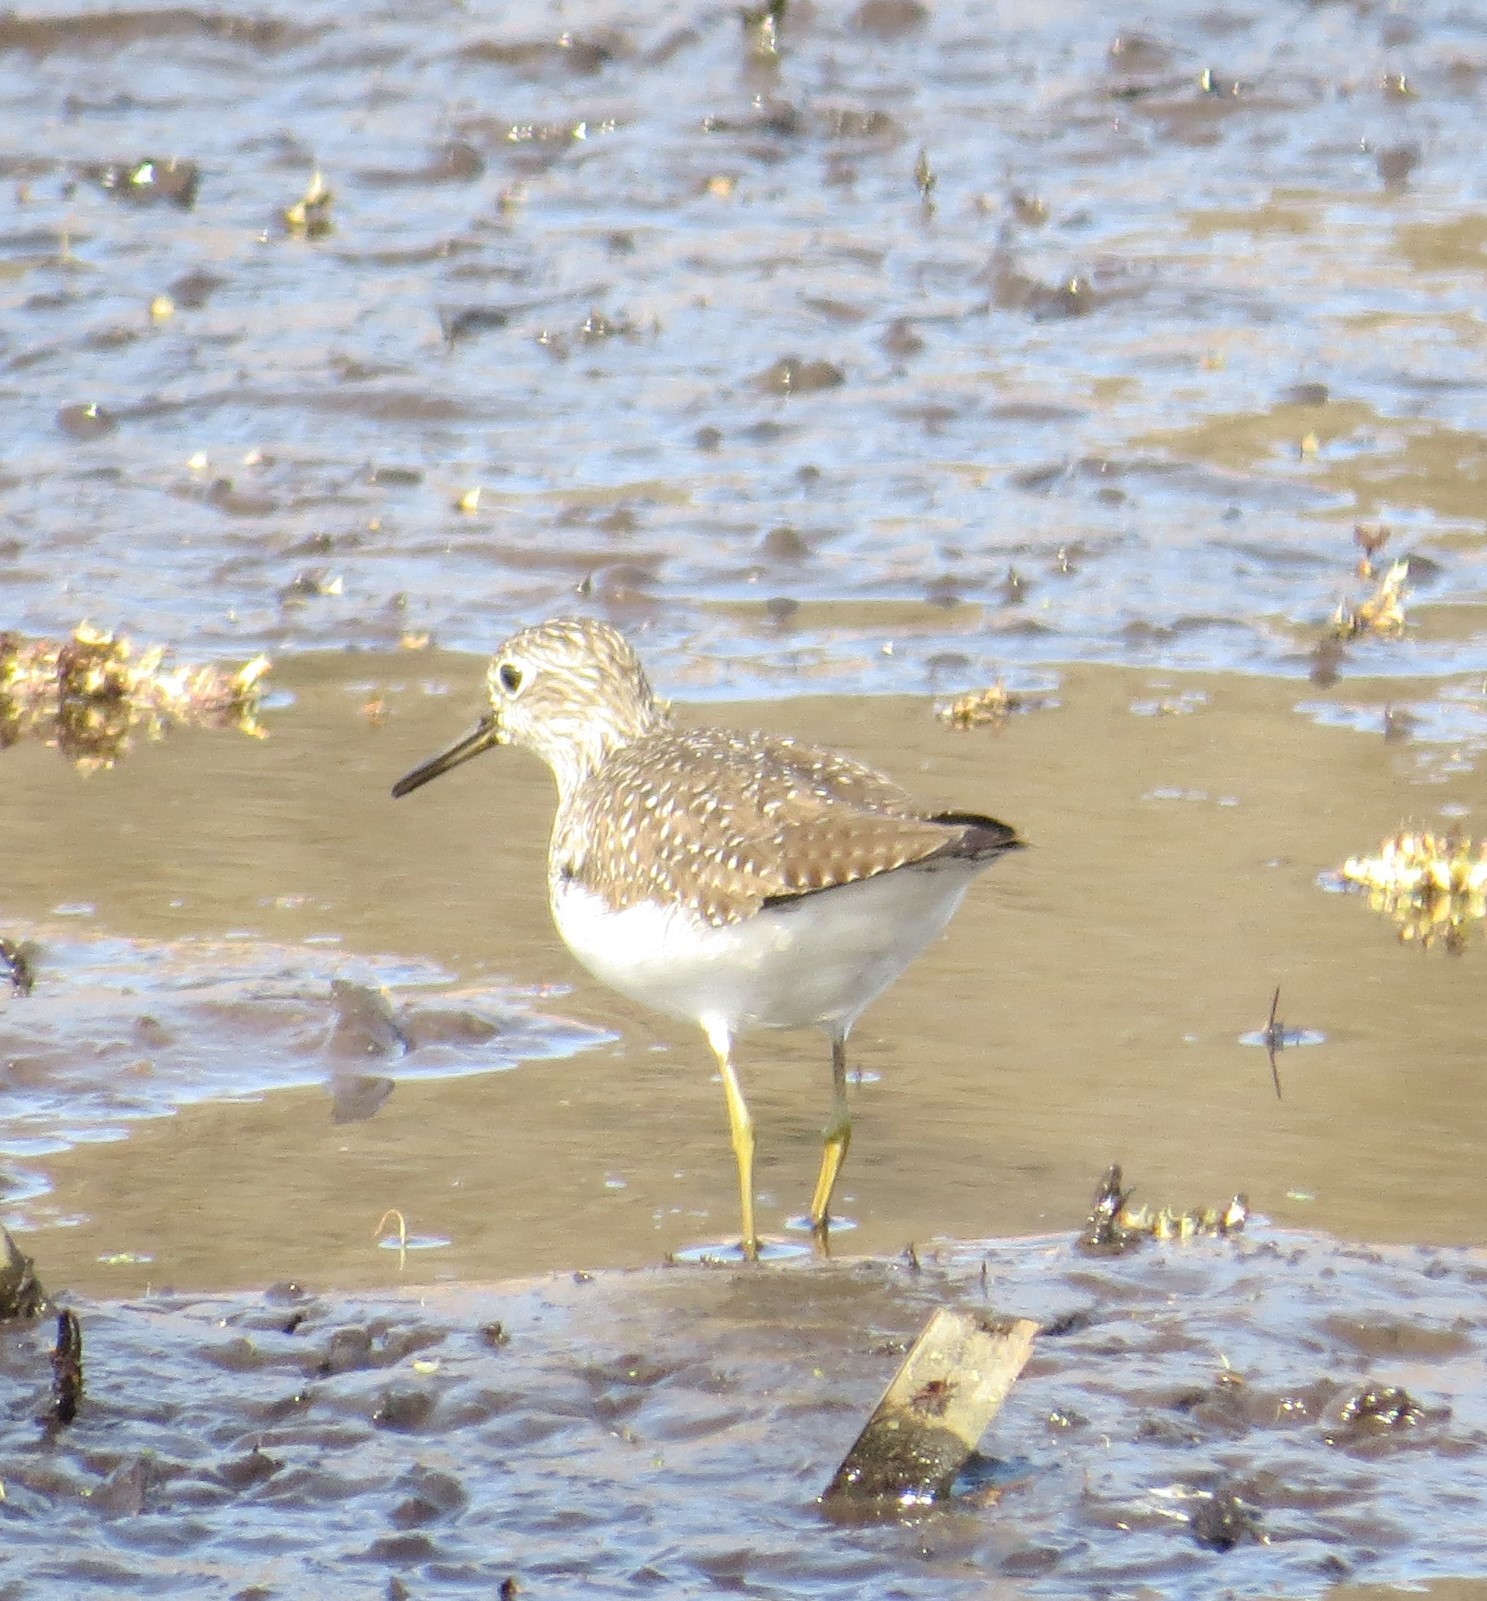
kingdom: Animalia
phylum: Chordata
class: Aves
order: Charadriiformes
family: Scolopacidae
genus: Tringa
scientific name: Tringa solitaria
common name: Solitary sandpiper
